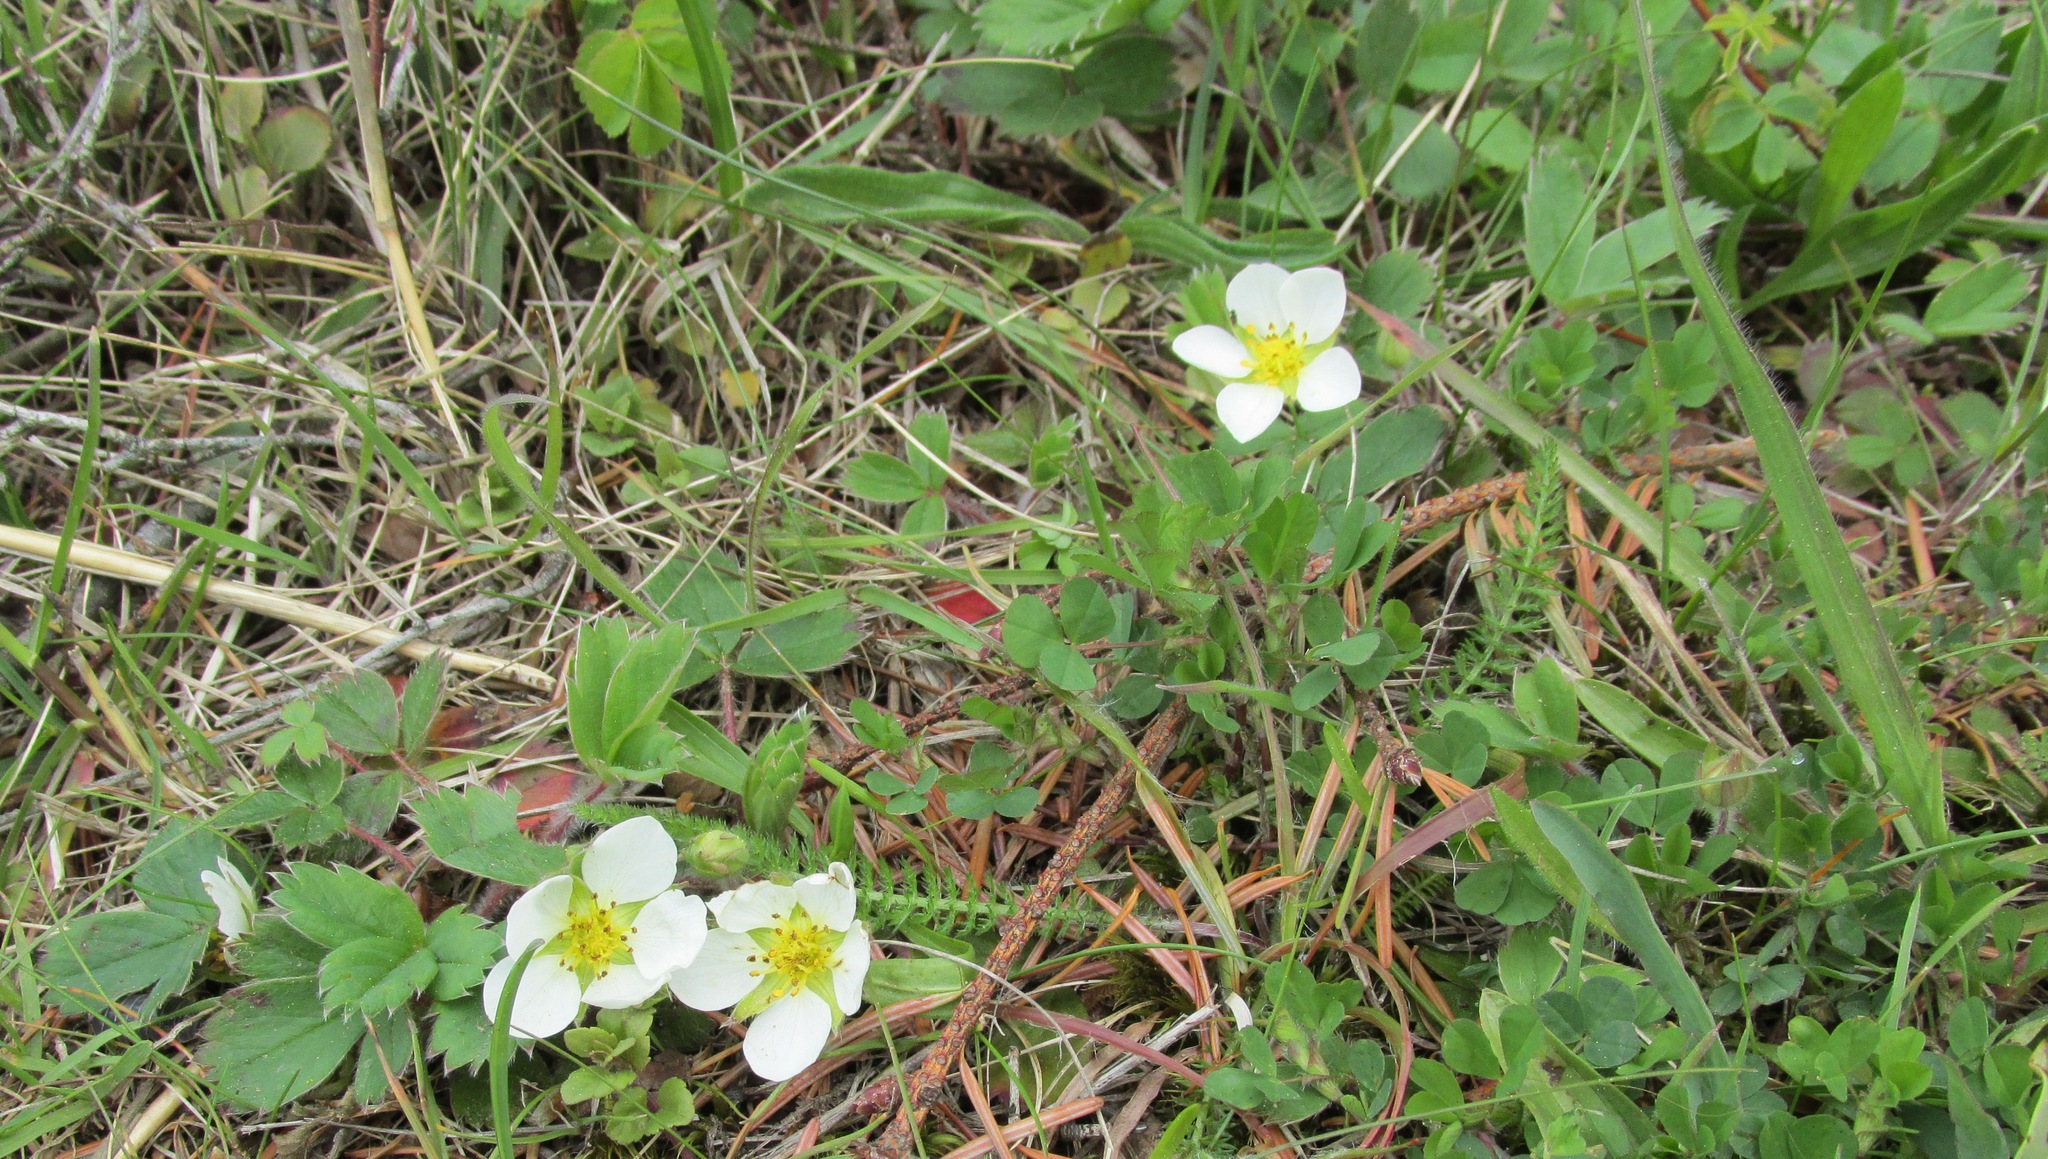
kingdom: Plantae
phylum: Tracheophyta
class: Magnoliopsida
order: Rosales
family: Rosaceae
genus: Fragaria
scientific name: Fragaria virginiana
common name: Thickleaved wild strawberry
